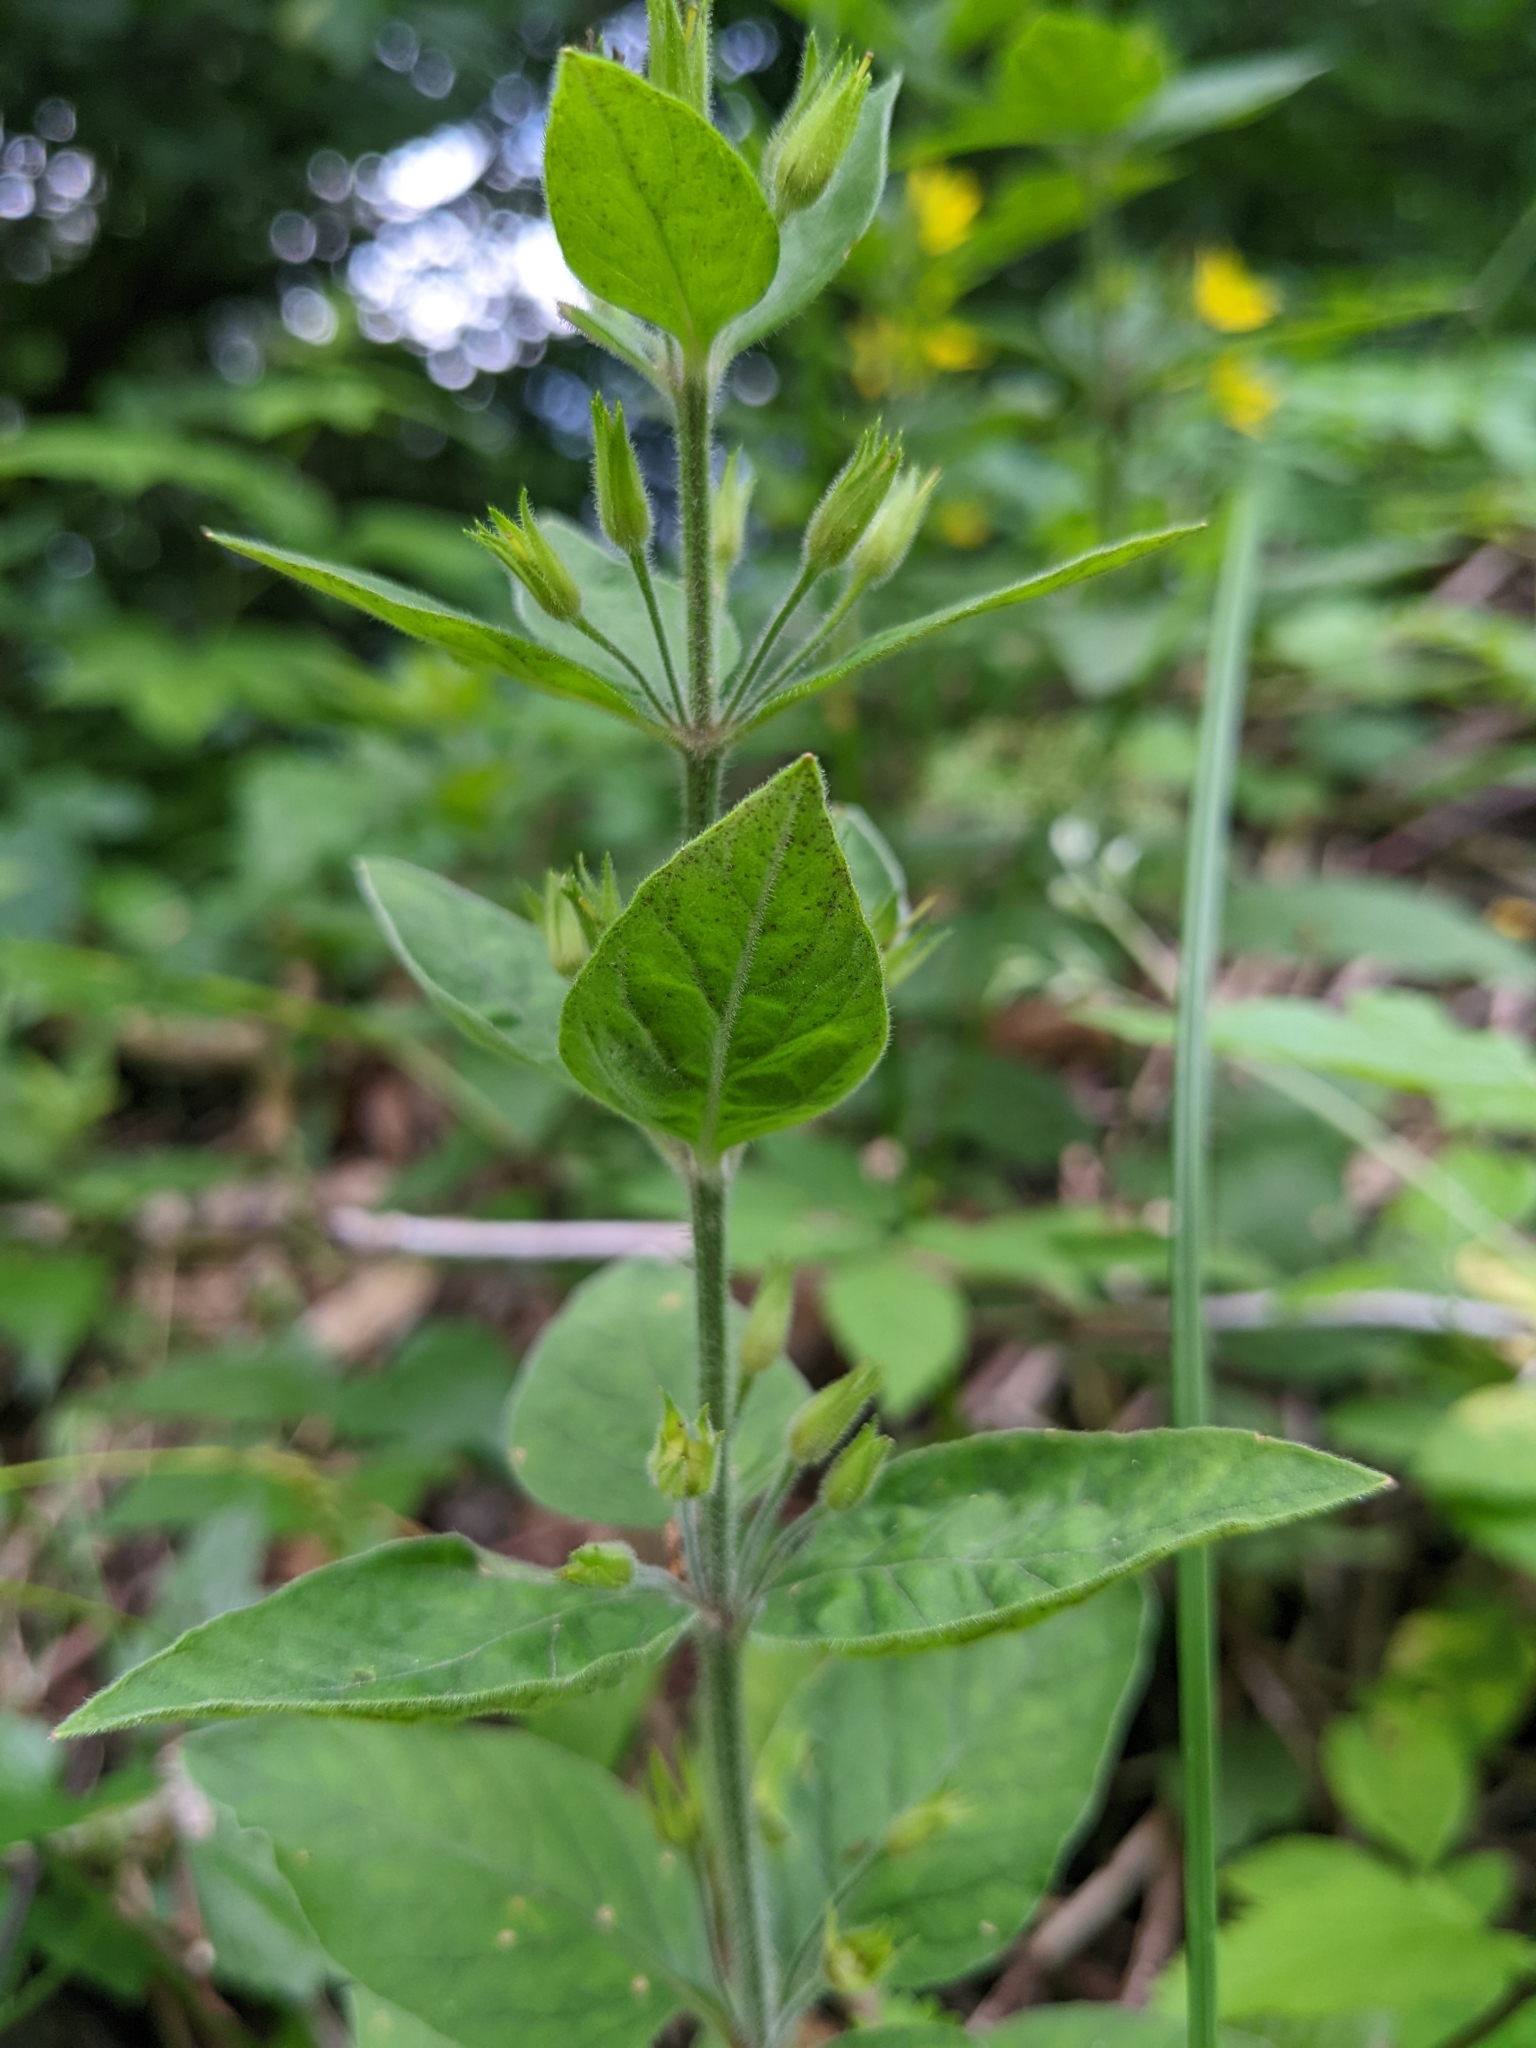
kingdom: Plantae
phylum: Tracheophyta
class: Magnoliopsida
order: Ericales
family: Primulaceae
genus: Lysimachia
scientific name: Lysimachia punctata
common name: Dotted loosestrife
